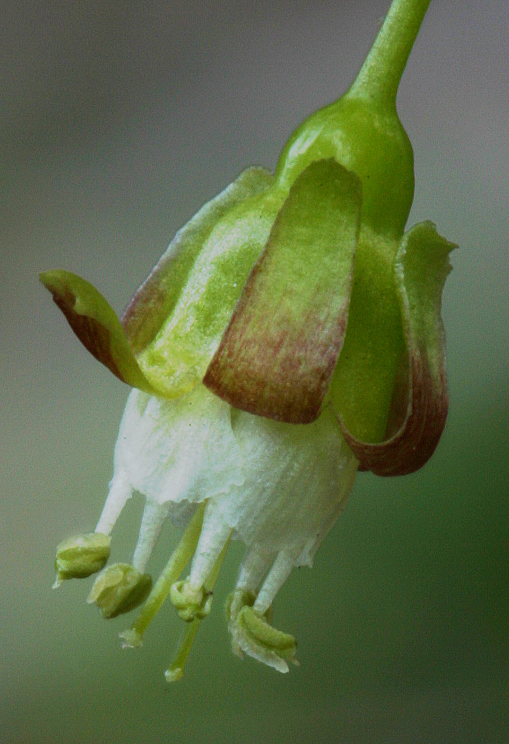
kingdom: Plantae
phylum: Tracheophyta
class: Magnoliopsida
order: Saxifragales
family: Grossulariaceae
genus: Ribes
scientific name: Ribes inerme
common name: White-stem gooseberry
